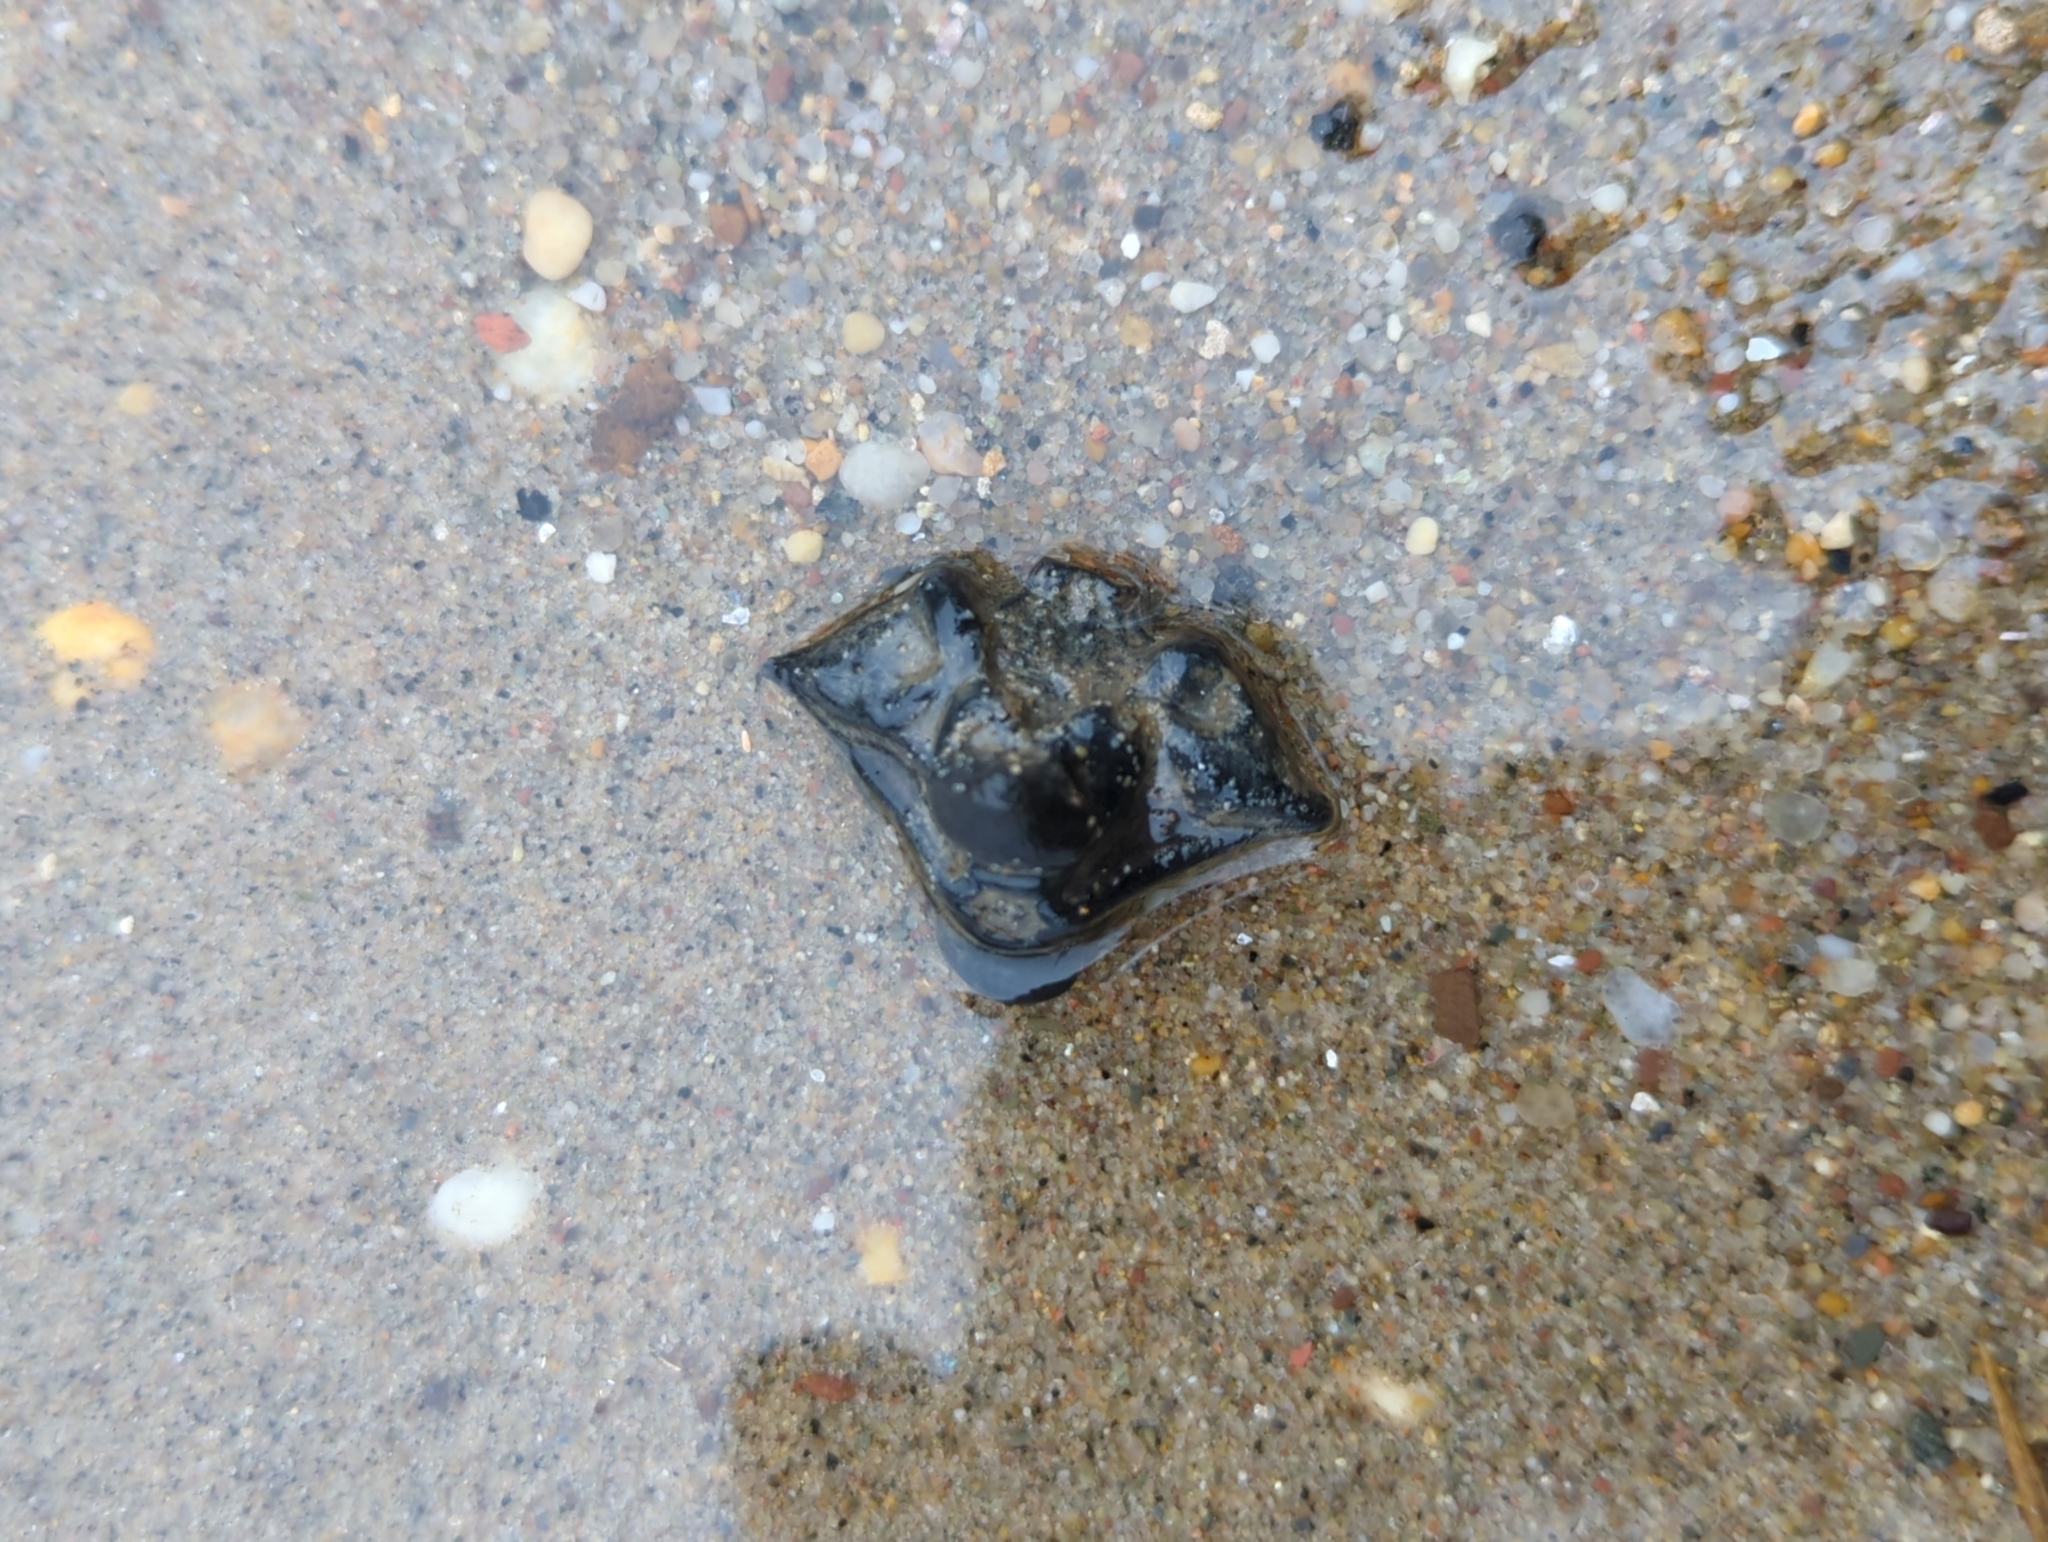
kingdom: Plantae
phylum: Tracheophyta
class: Magnoliopsida
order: Myrtales
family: Lythraceae
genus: Trapa
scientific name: Trapa natans
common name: Water chestnut
